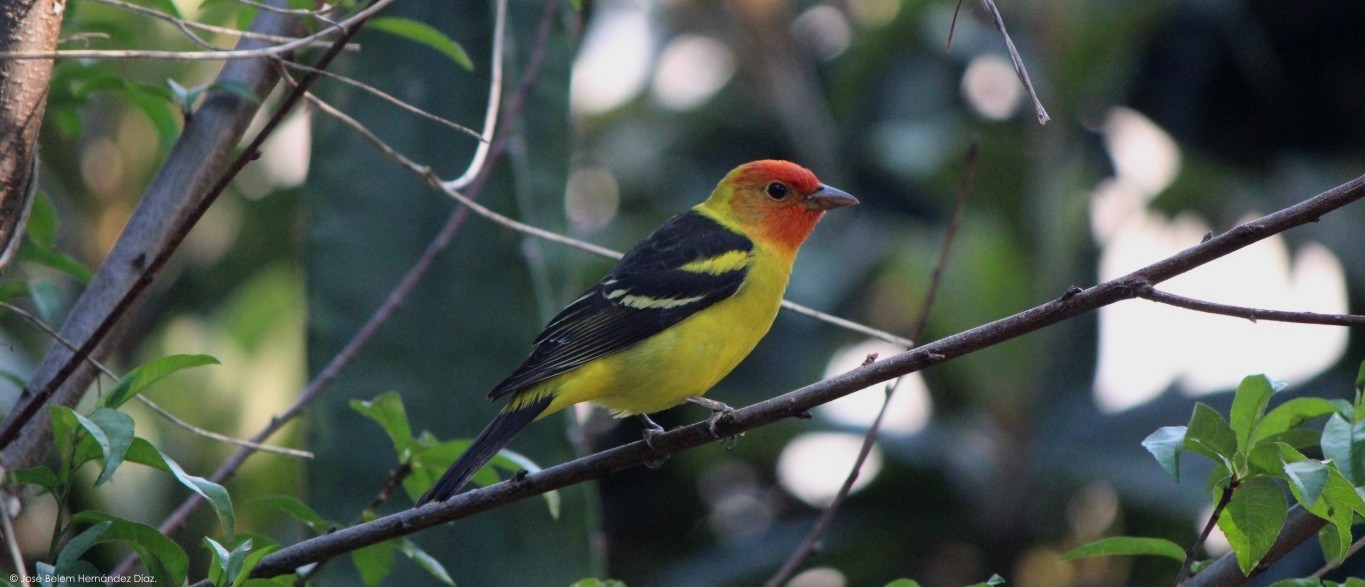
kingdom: Animalia
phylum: Chordata
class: Aves
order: Passeriformes
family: Cardinalidae
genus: Piranga
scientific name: Piranga ludoviciana
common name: Western tanager
